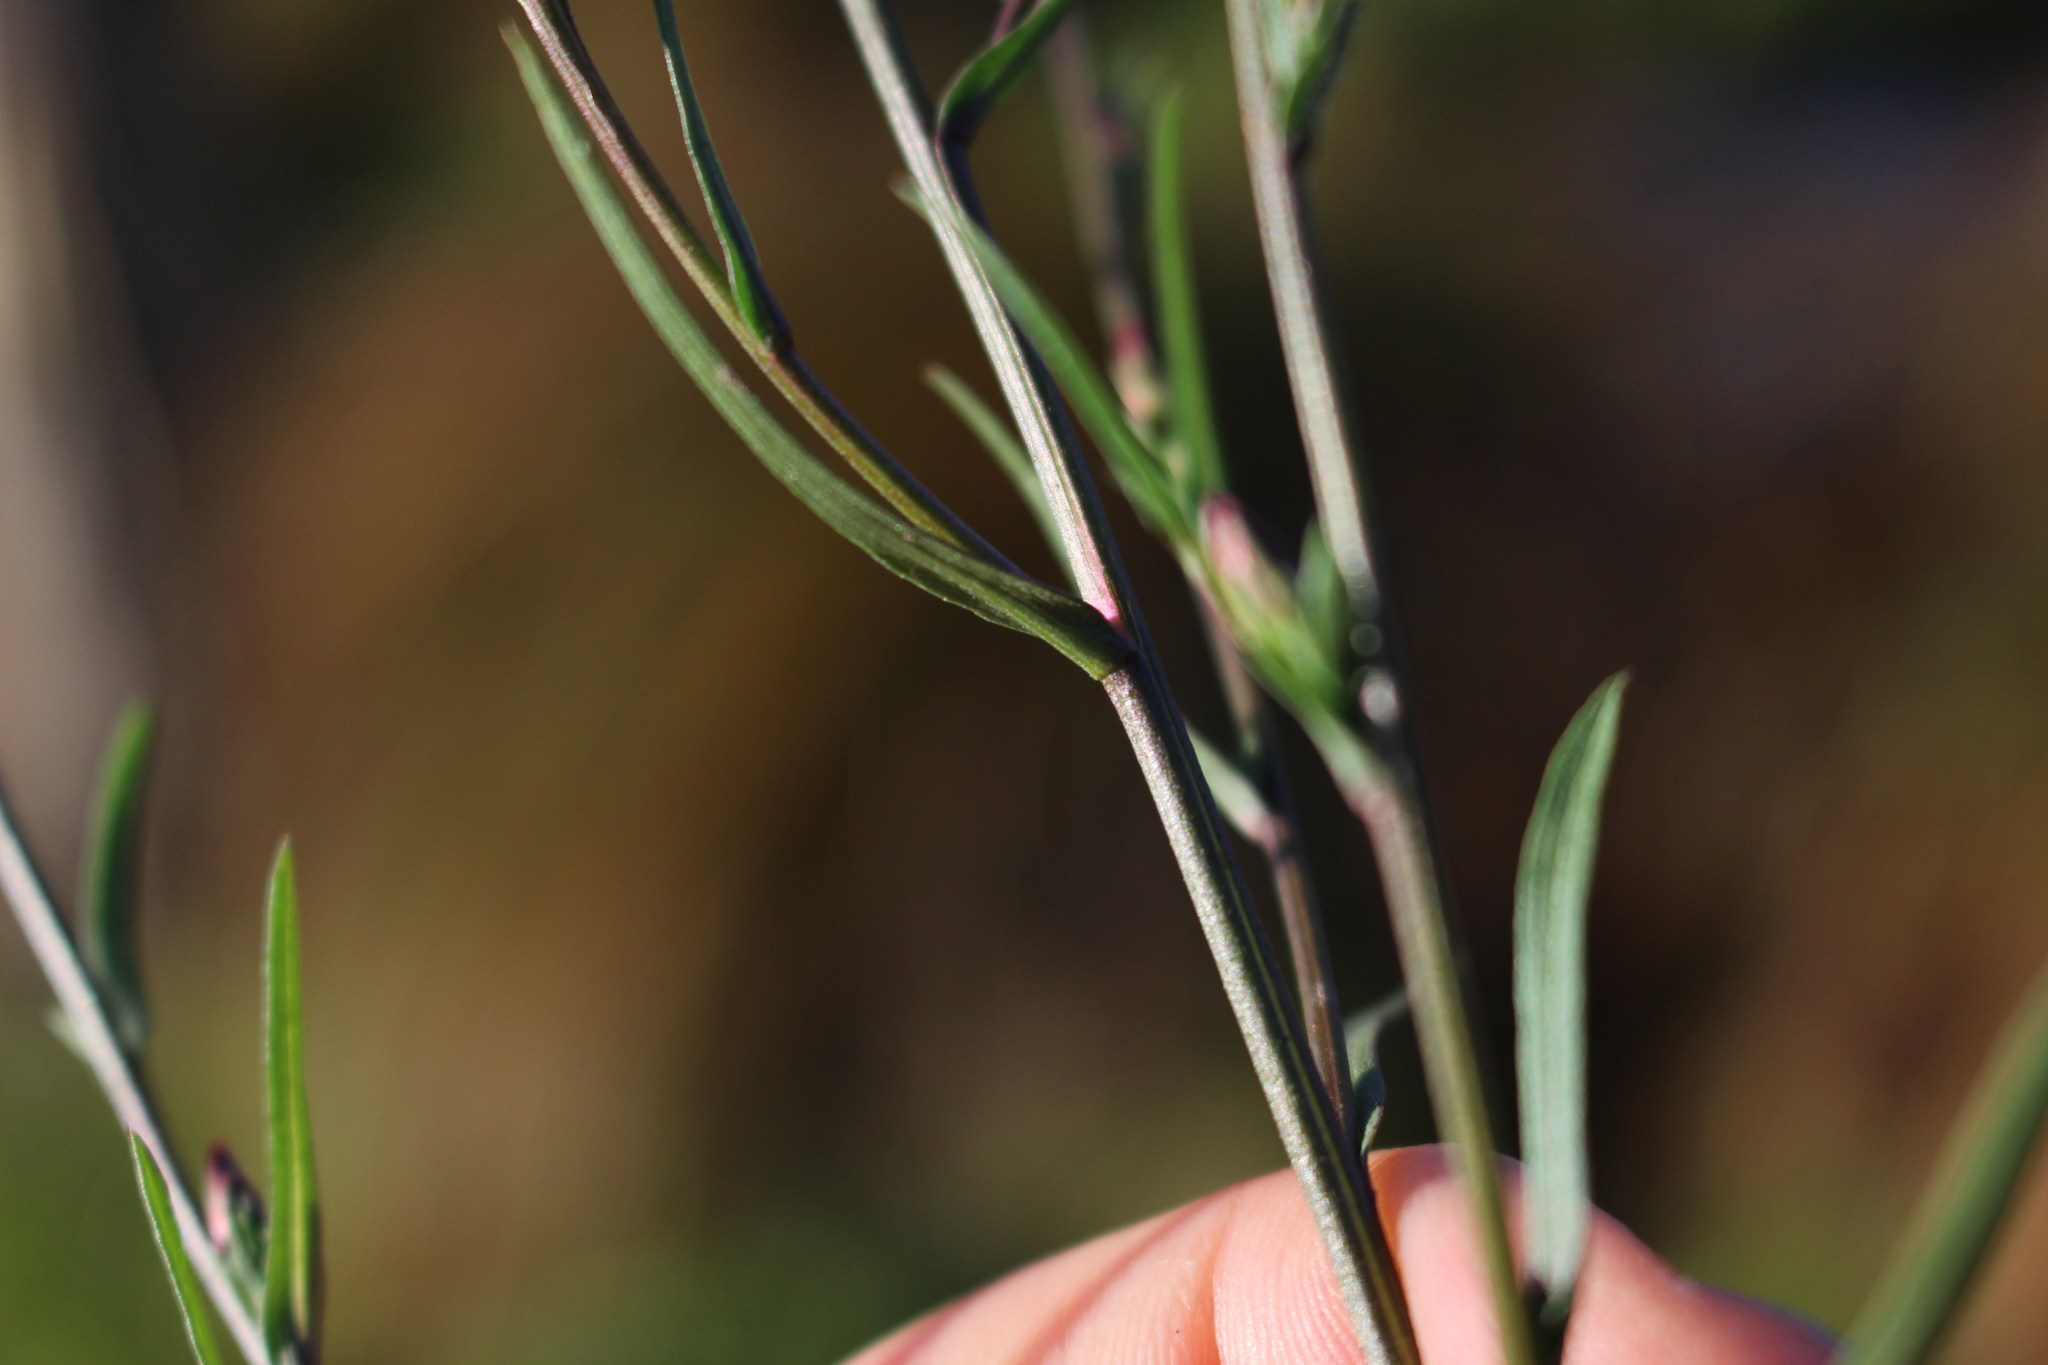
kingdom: Plantae
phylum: Tracheophyta
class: Magnoliopsida
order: Asterales
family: Asteraceae
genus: Symphyotrichum
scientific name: Symphyotrichum subulatum
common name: Annual saltmarsh aster
